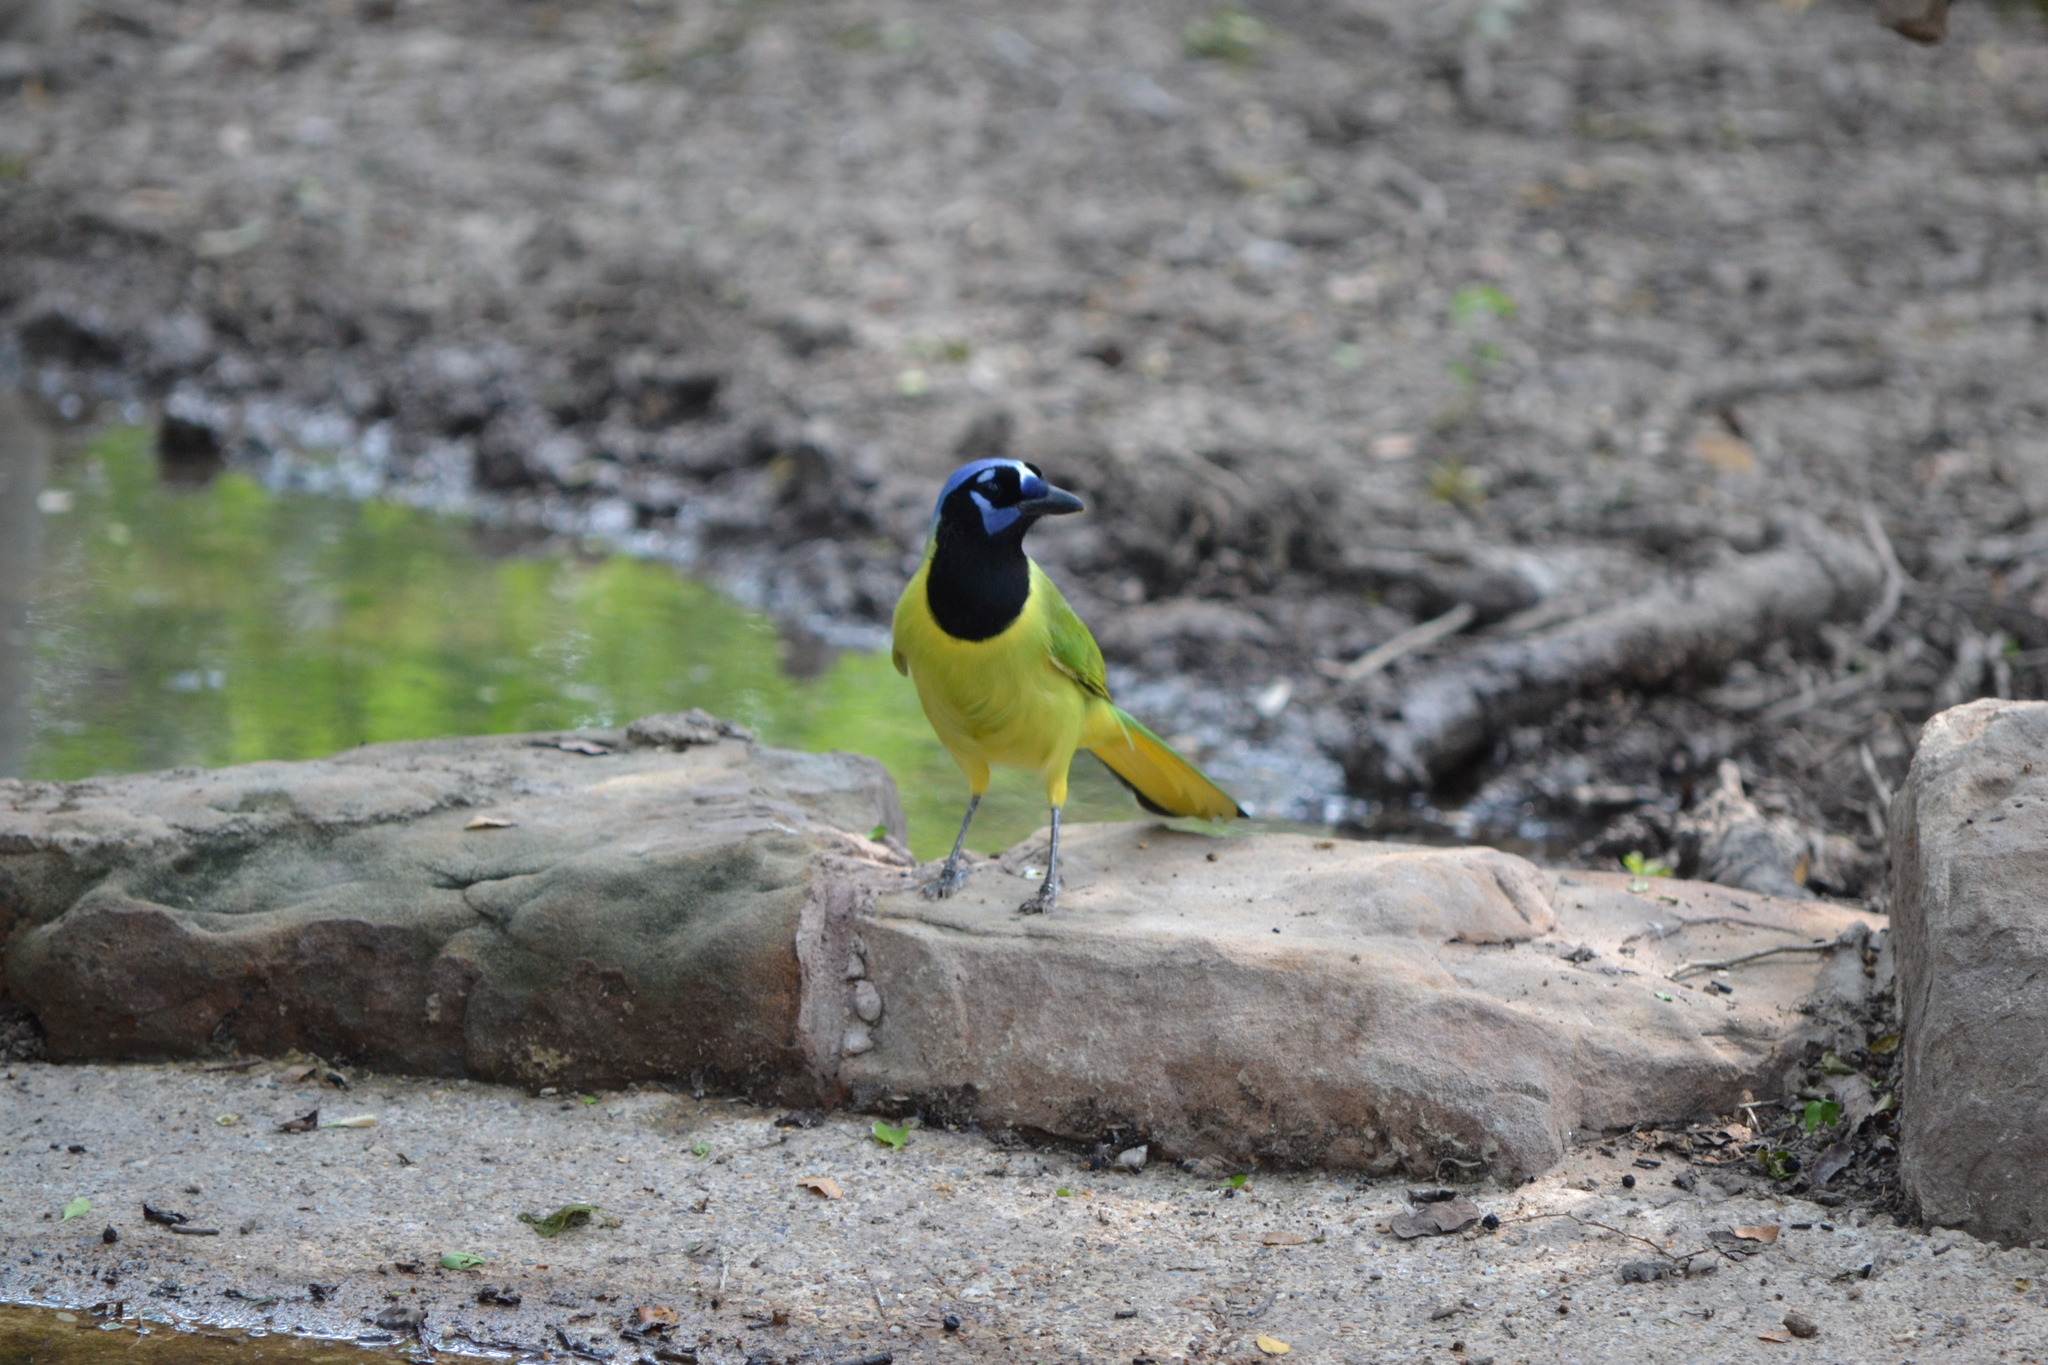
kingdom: Animalia
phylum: Chordata
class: Aves
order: Passeriformes
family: Corvidae
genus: Cyanocorax
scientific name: Cyanocorax yncas
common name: Green jay
